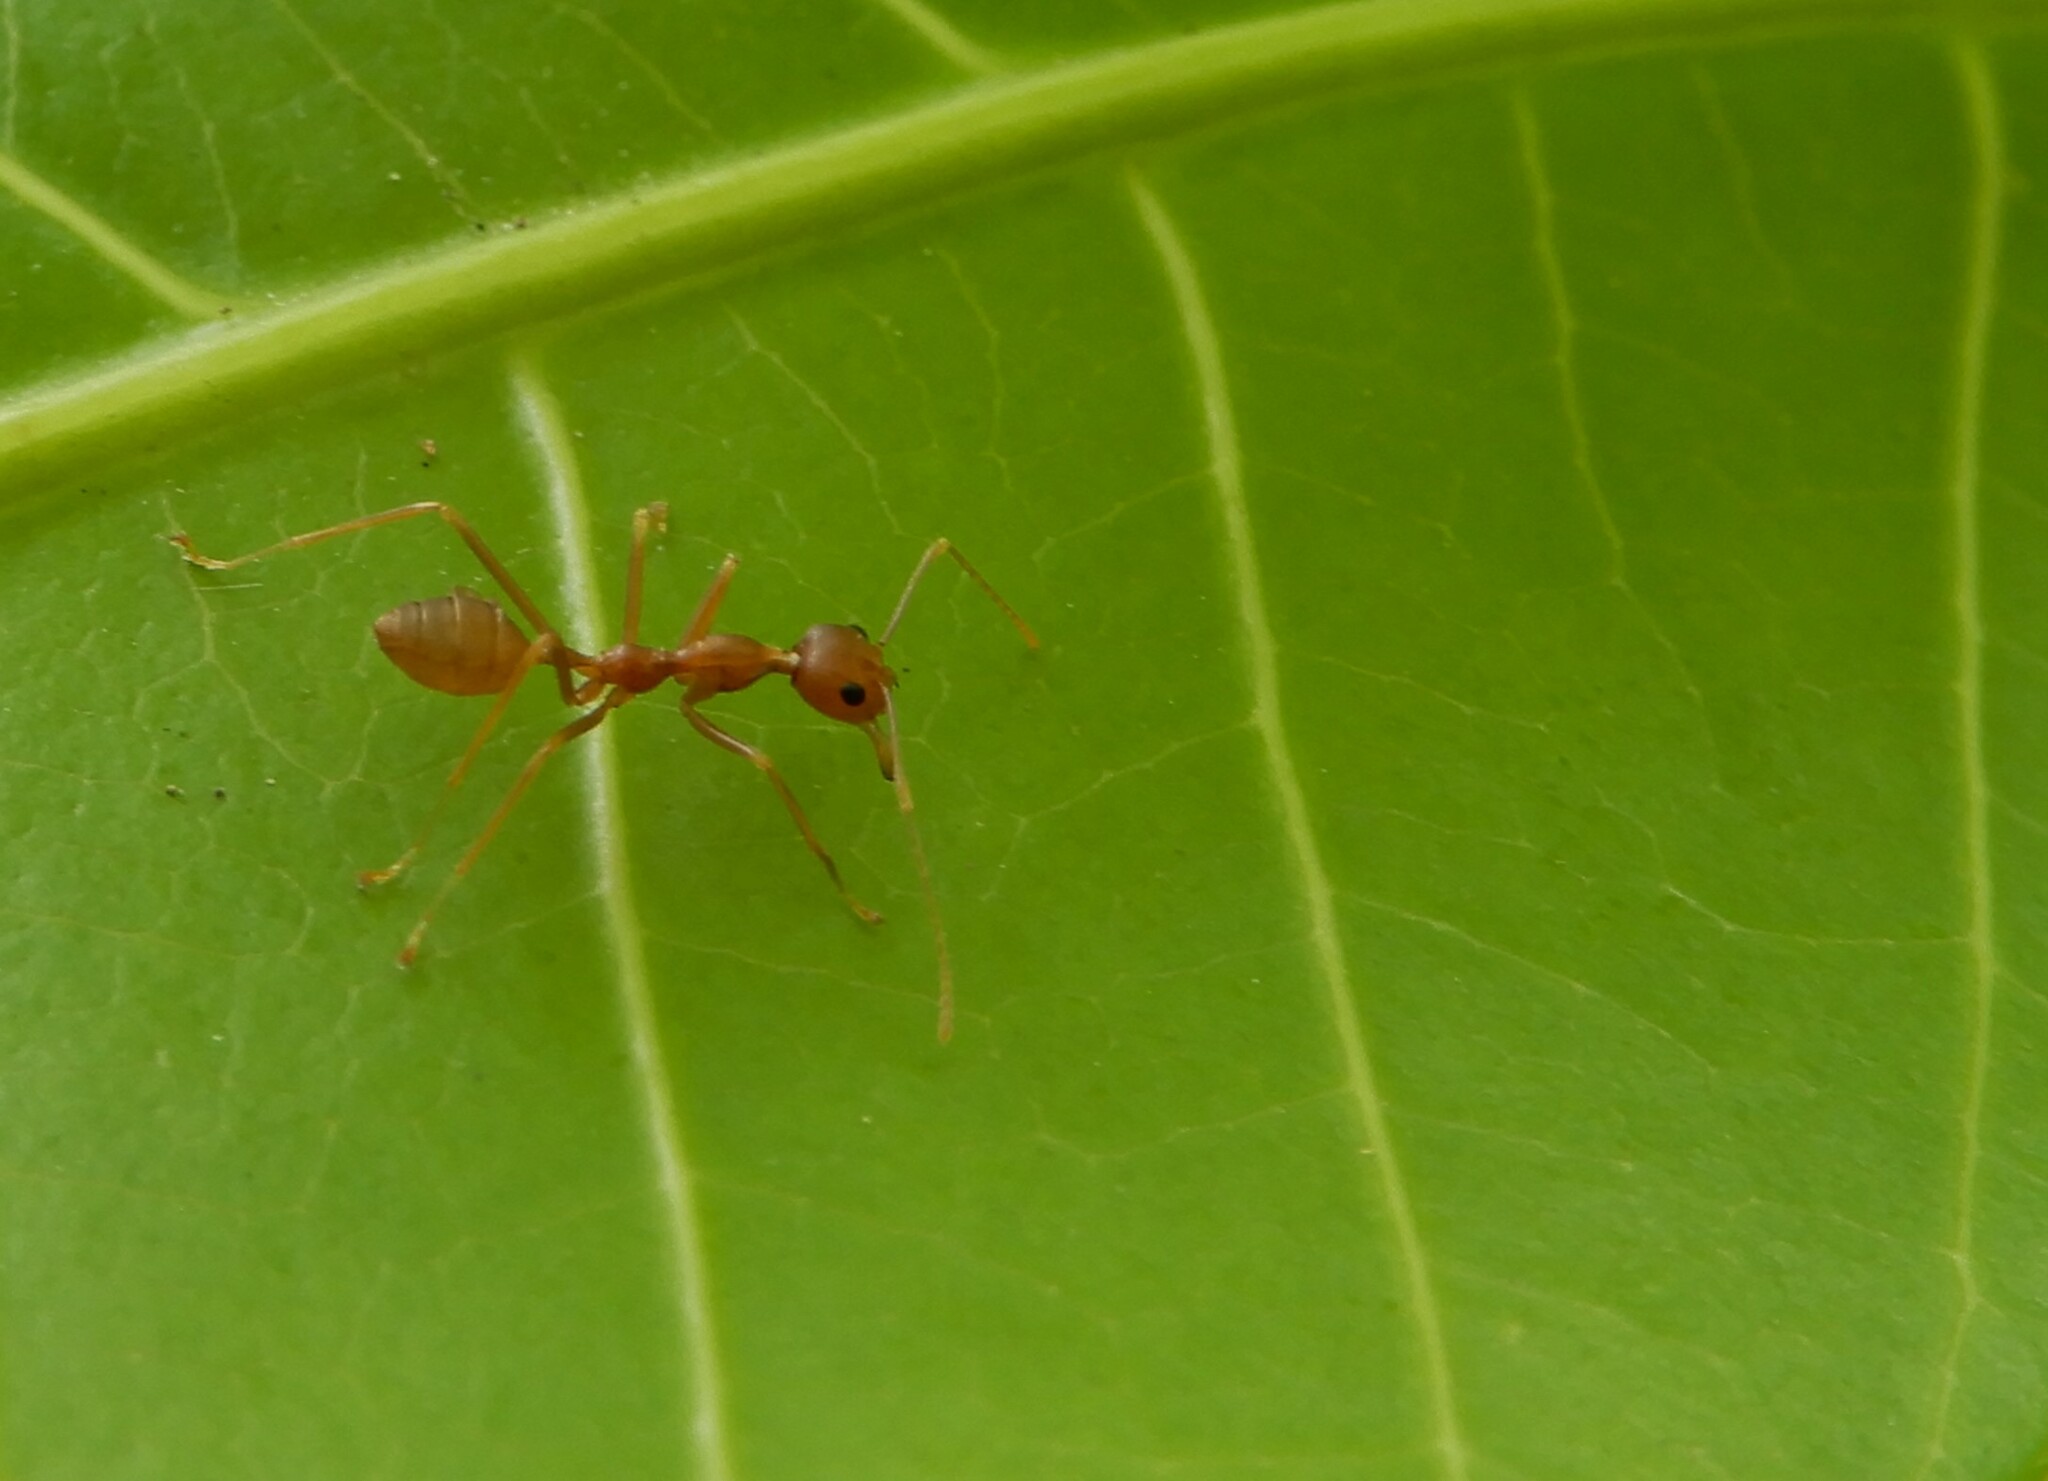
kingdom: Animalia
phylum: Arthropoda
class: Insecta
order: Hymenoptera
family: Formicidae
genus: Oecophylla
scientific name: Oecophylla smaragdina
